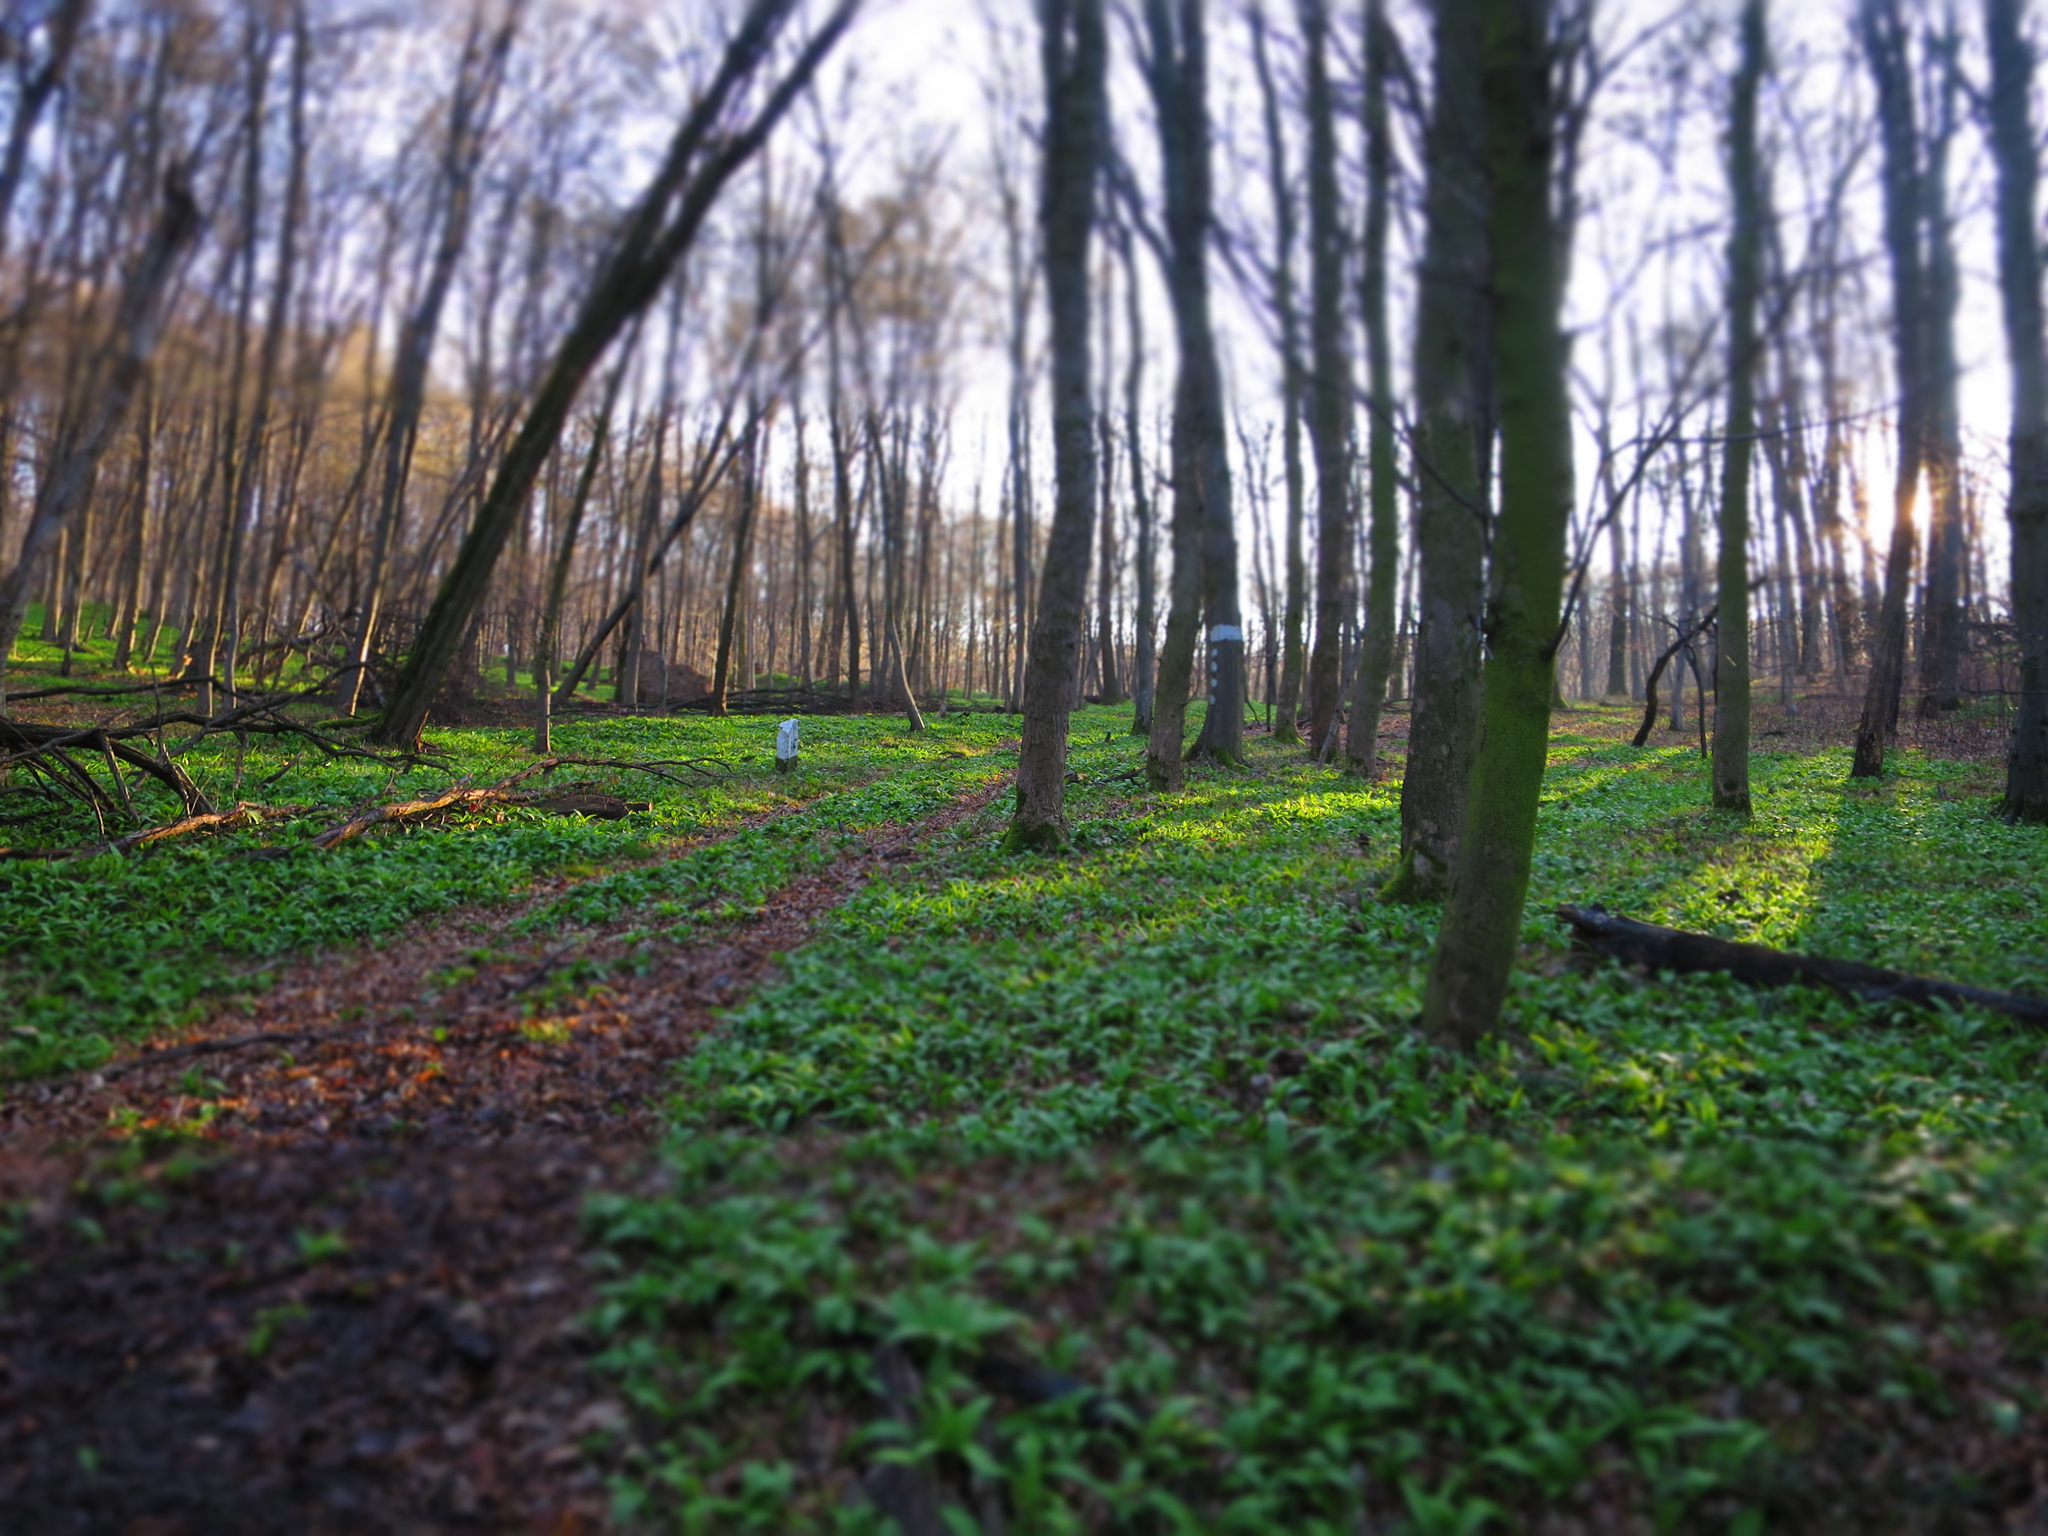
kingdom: Plantae
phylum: Tracheophyta
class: Liliopsida
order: Asparagales
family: Amaryllidaceae
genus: Allium
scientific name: Allium ursinum
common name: Ramsons
